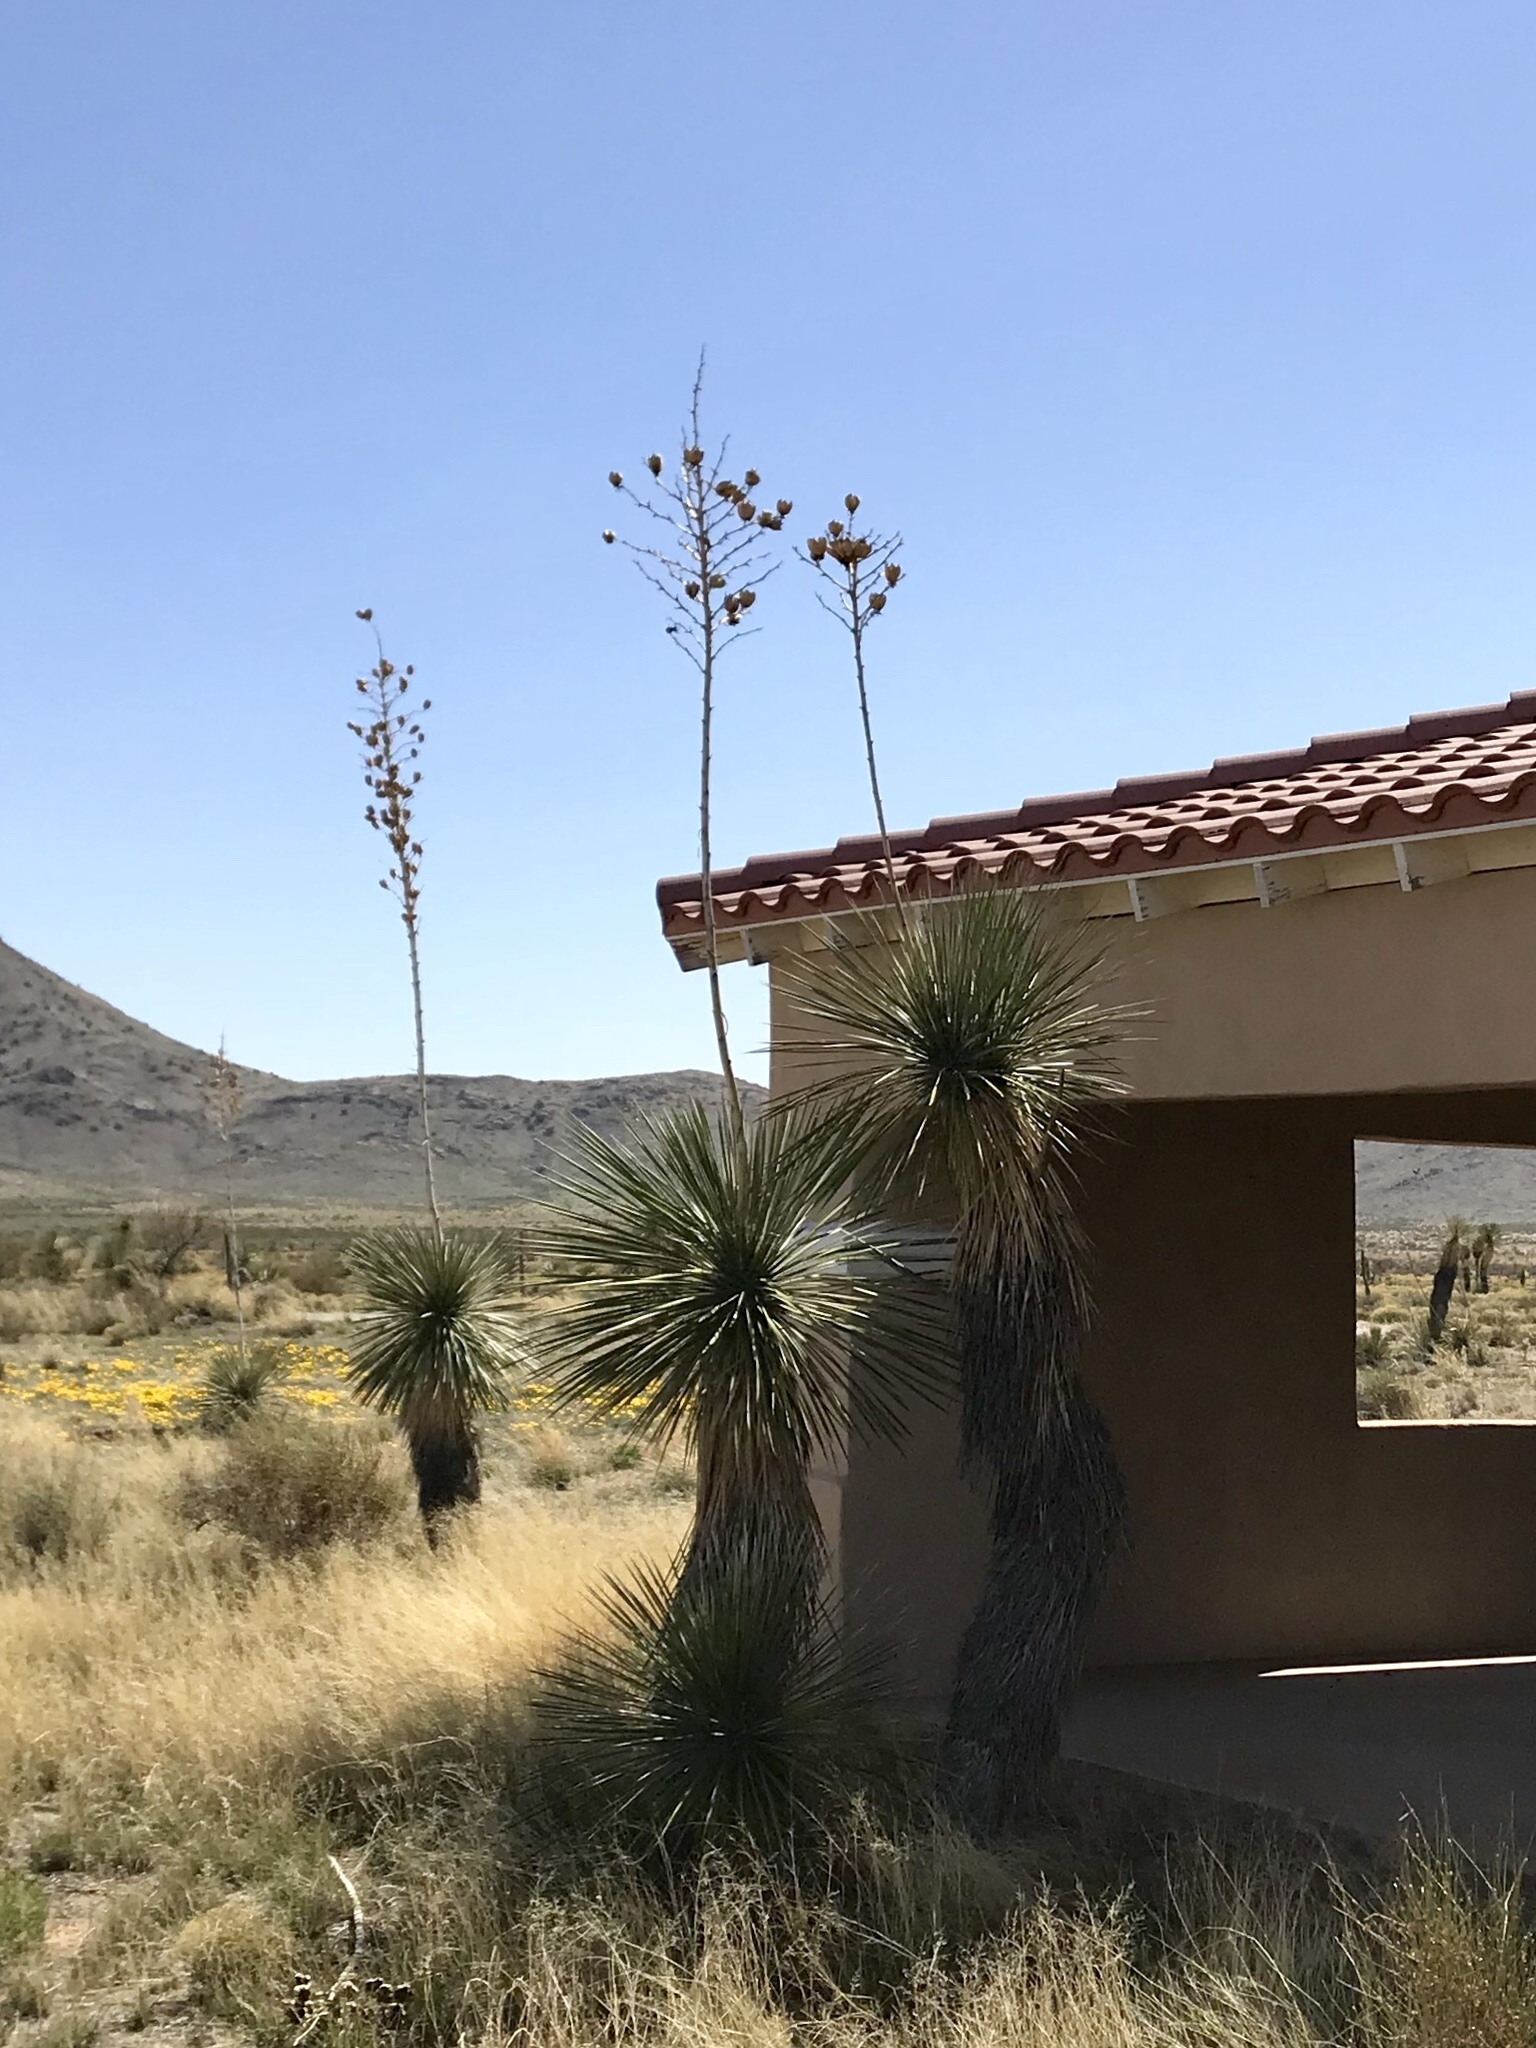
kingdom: Plantae
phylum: Tracheophyta
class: Liliopsida
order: Asparagales
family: Asparagaceae
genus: Yucca
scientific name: Yucca elata
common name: Palmella
